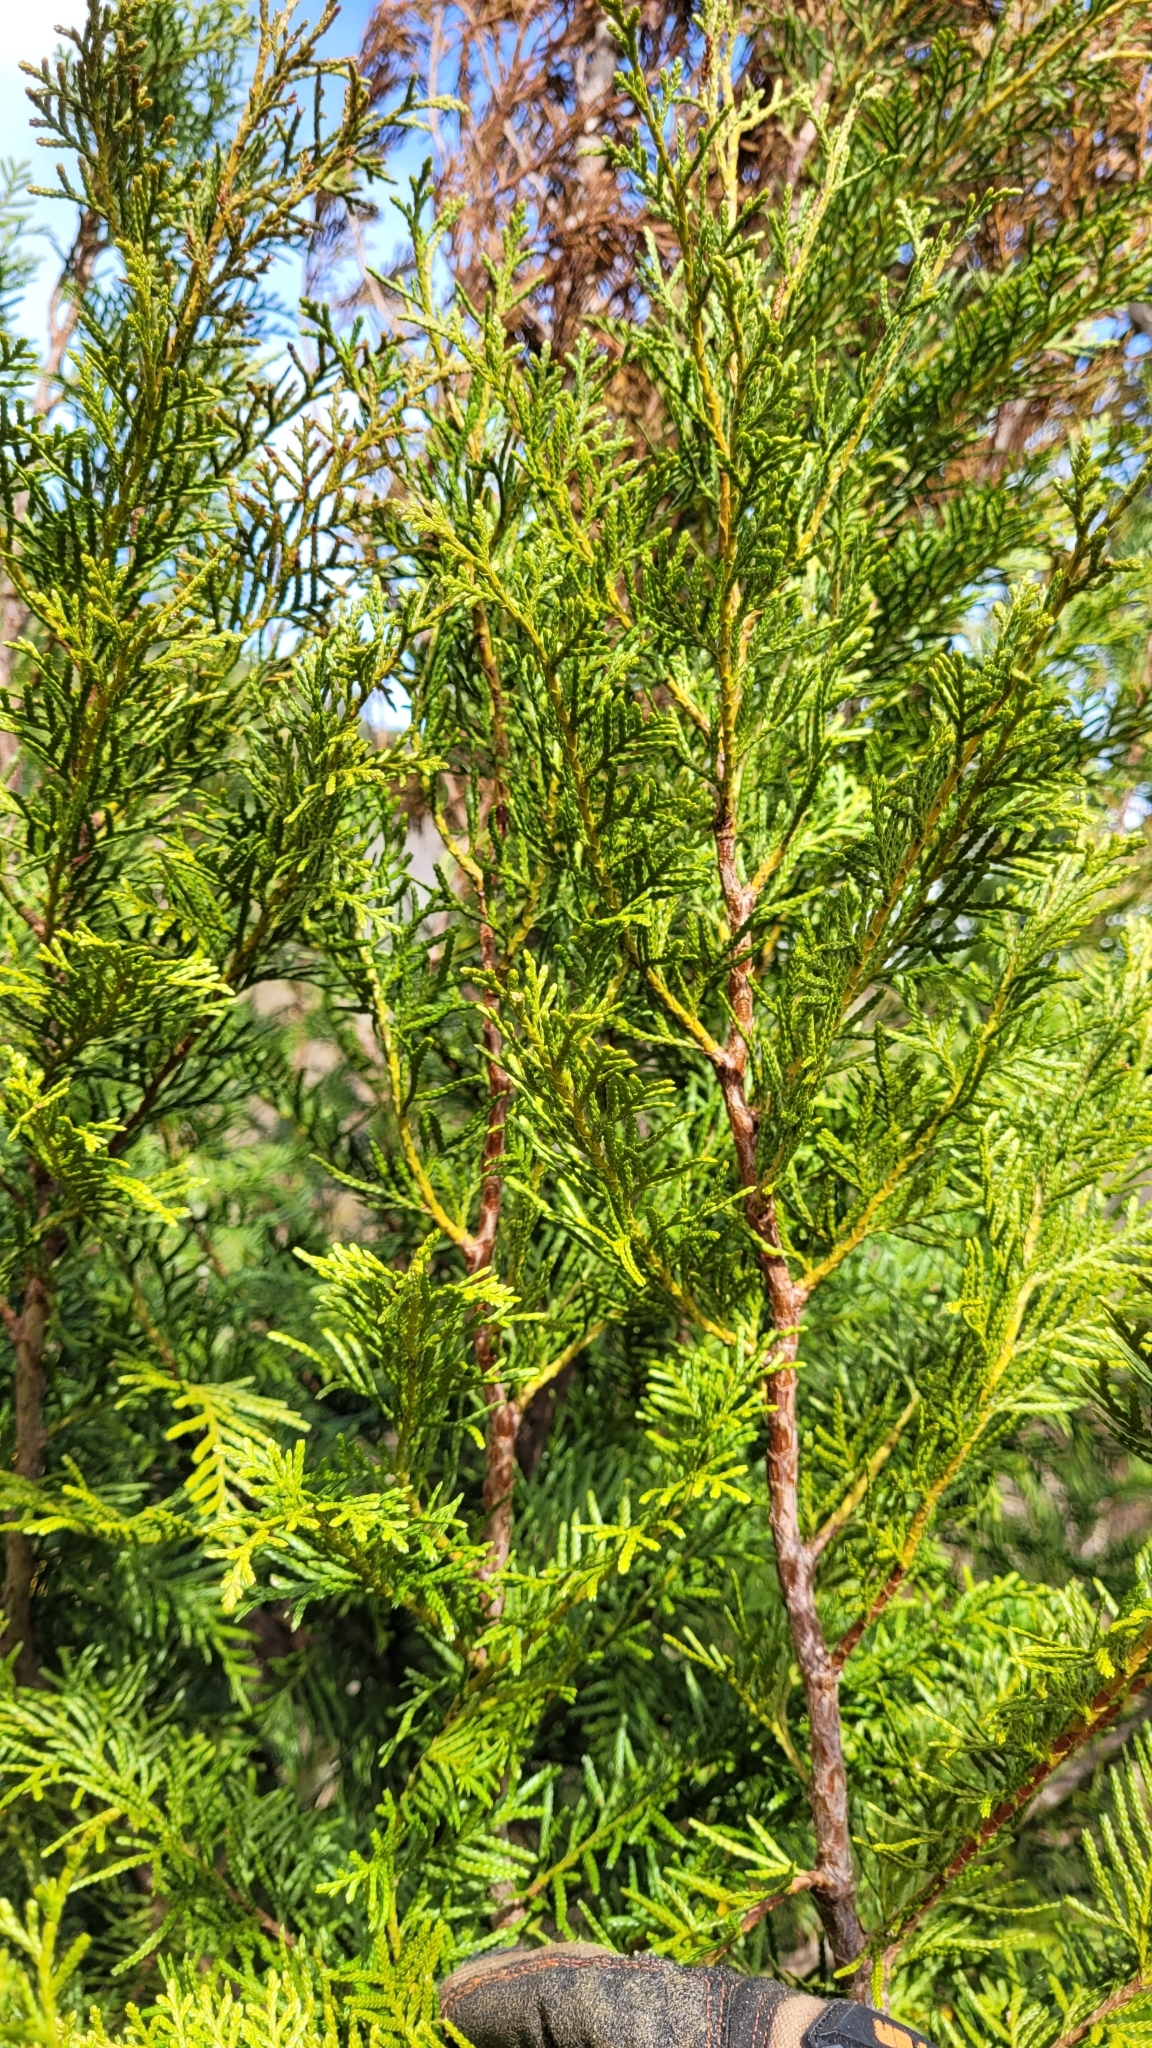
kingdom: Plantae
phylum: Tracheophyta
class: Pinopsida
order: Pinales
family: Cupressaceae
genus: Libocedrus
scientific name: Libocedrus bidwillii
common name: Cedar
